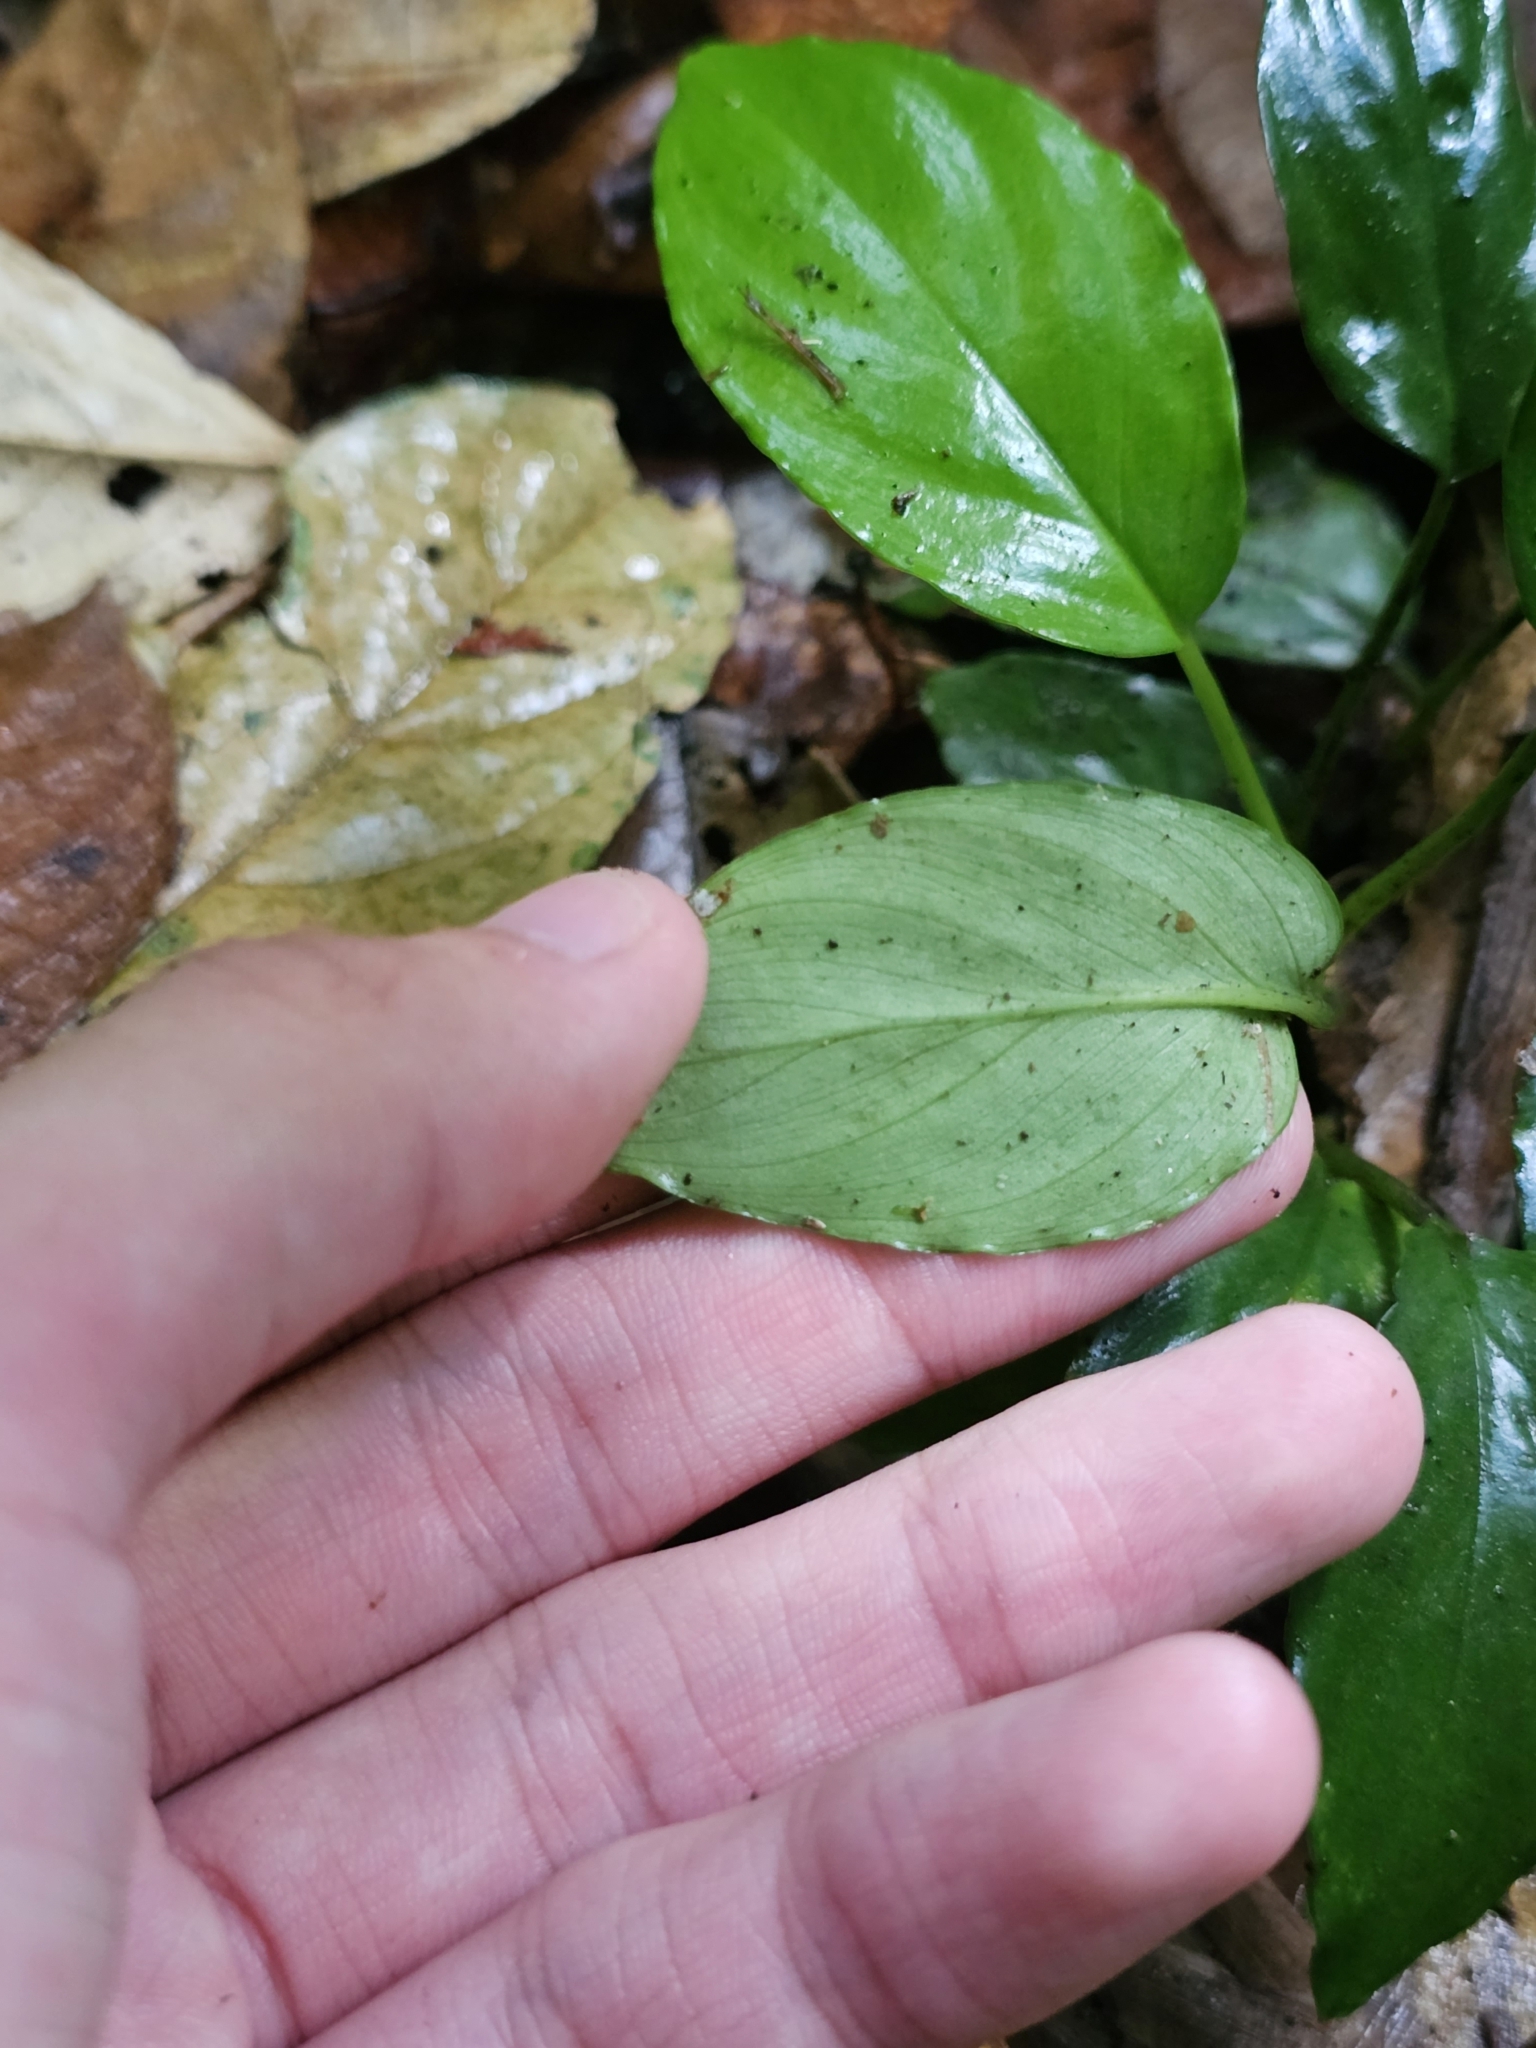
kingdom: Plantae
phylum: Tracheophyta
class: Liliopsida
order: Alismatales
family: Araceae
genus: Homalomena
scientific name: Homalomena humilis
